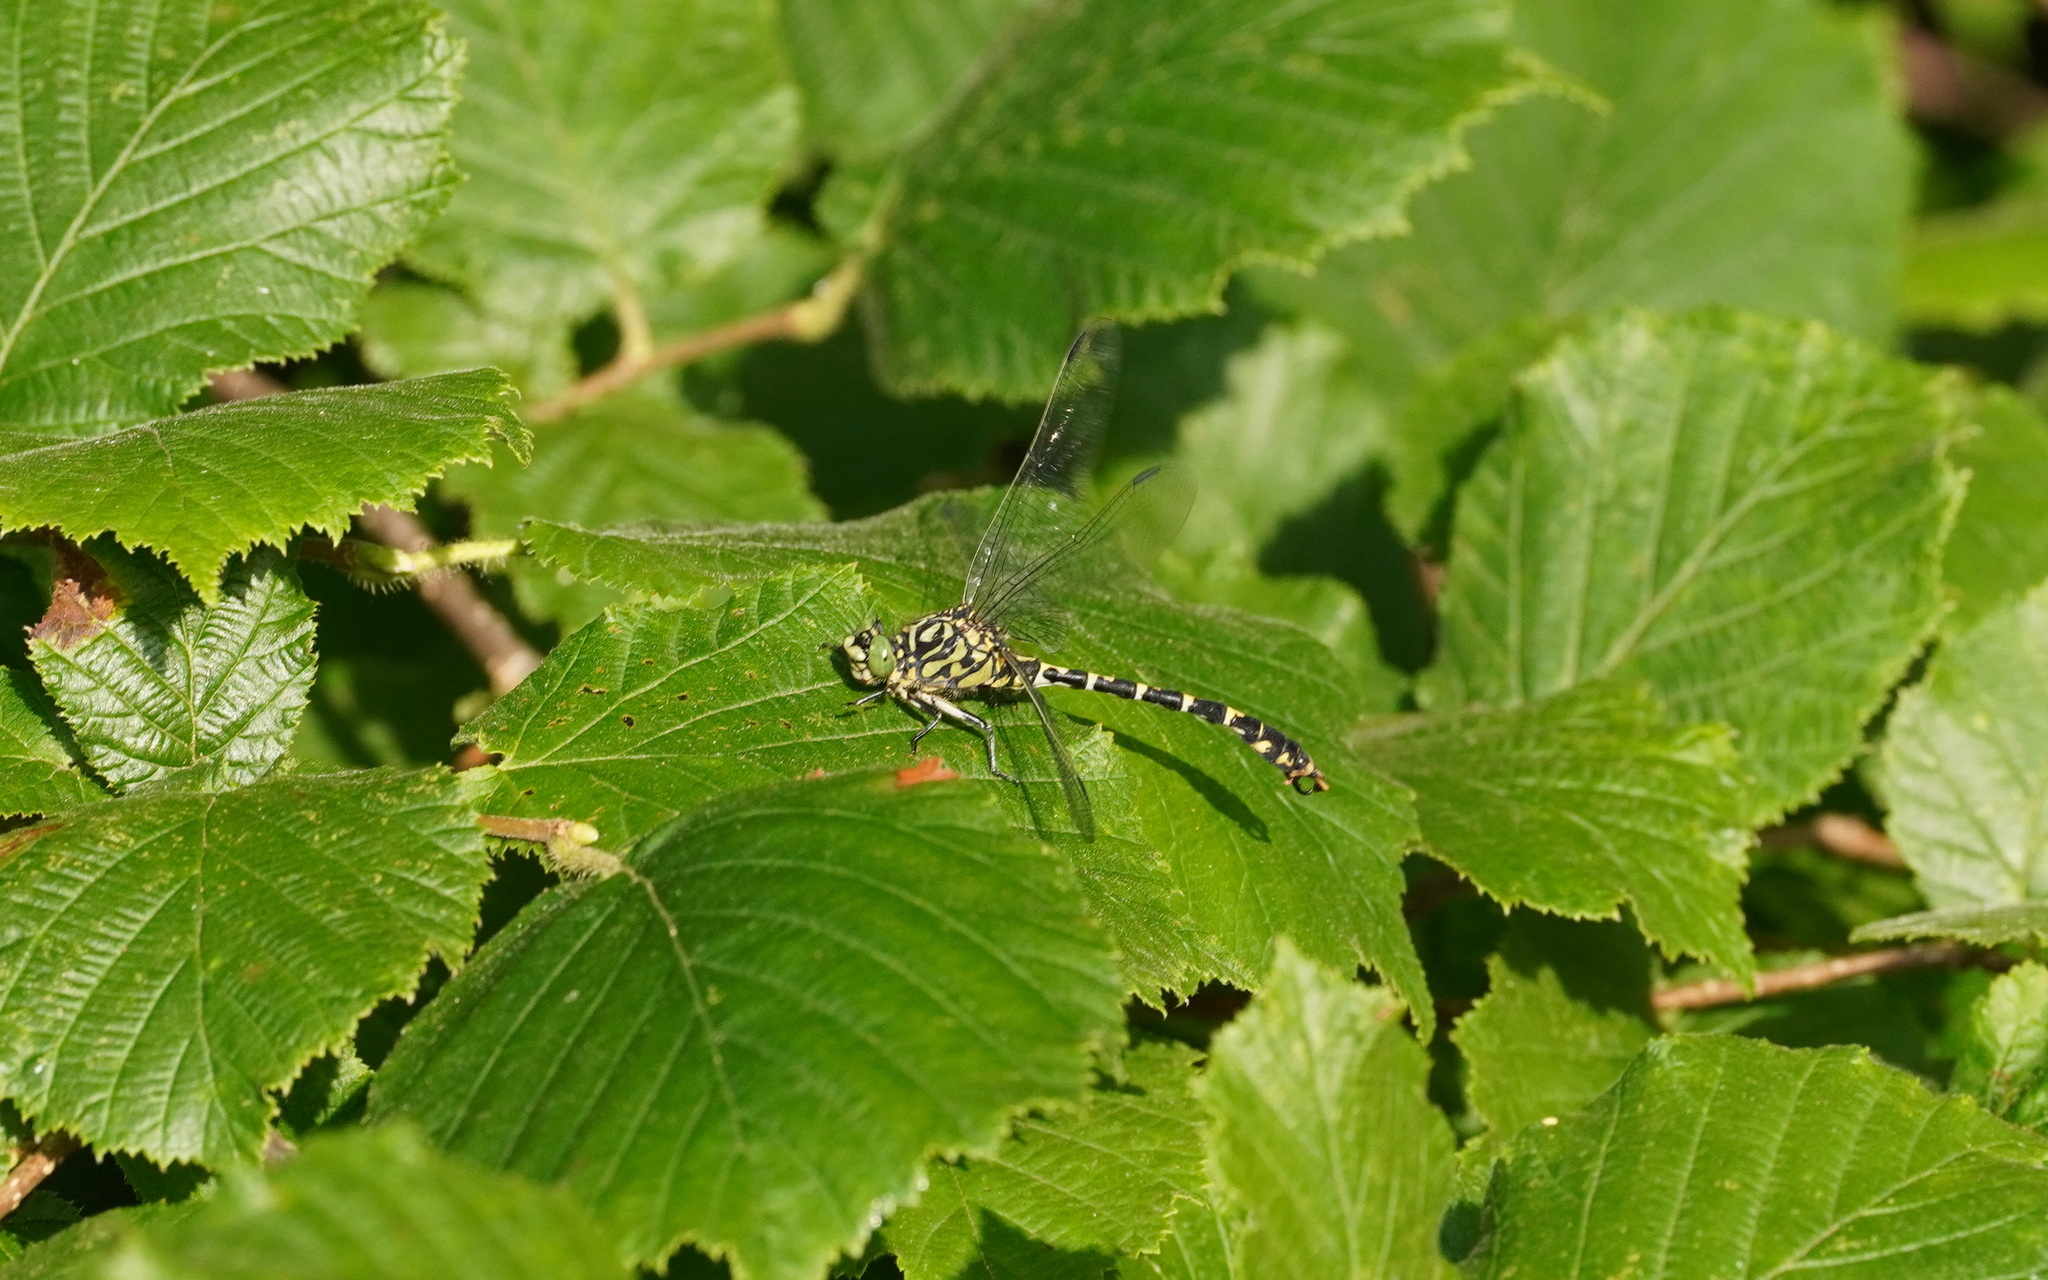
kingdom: Animalia
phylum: Arthropoda
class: Insecta
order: Odonata
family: Gomphidae
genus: Onychogomphus
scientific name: Onychogomphus forcipatus
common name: Small pincertail
